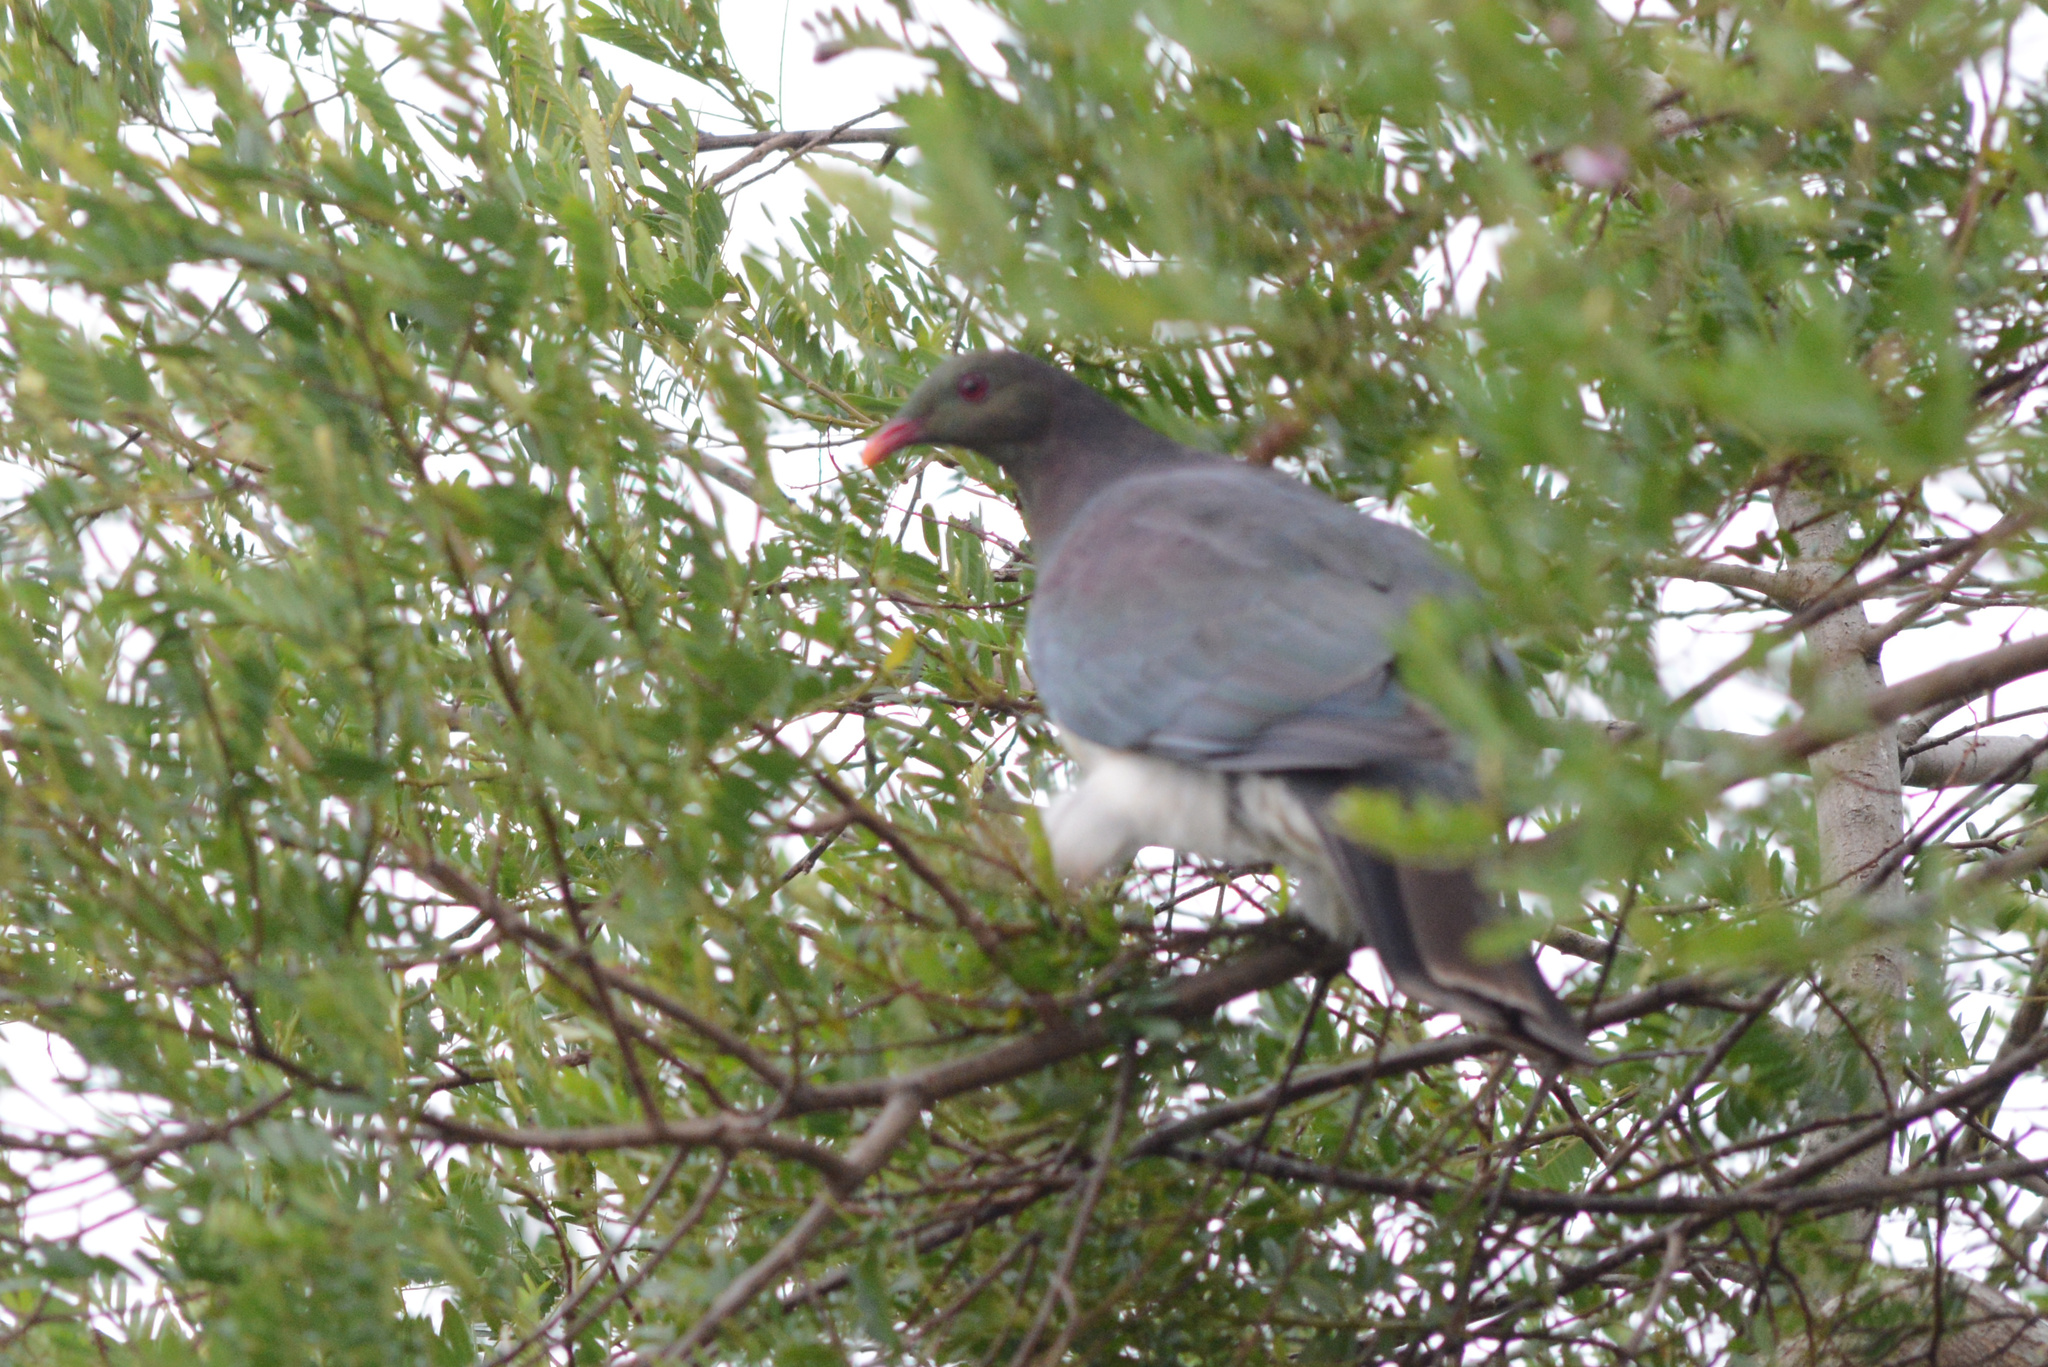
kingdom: Animalia
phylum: Chordata
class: Aves
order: Columbiformes
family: Columbidae
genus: Hemiphaga
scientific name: Hemiphaga novaeseelandiae
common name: New zealand pigeon
